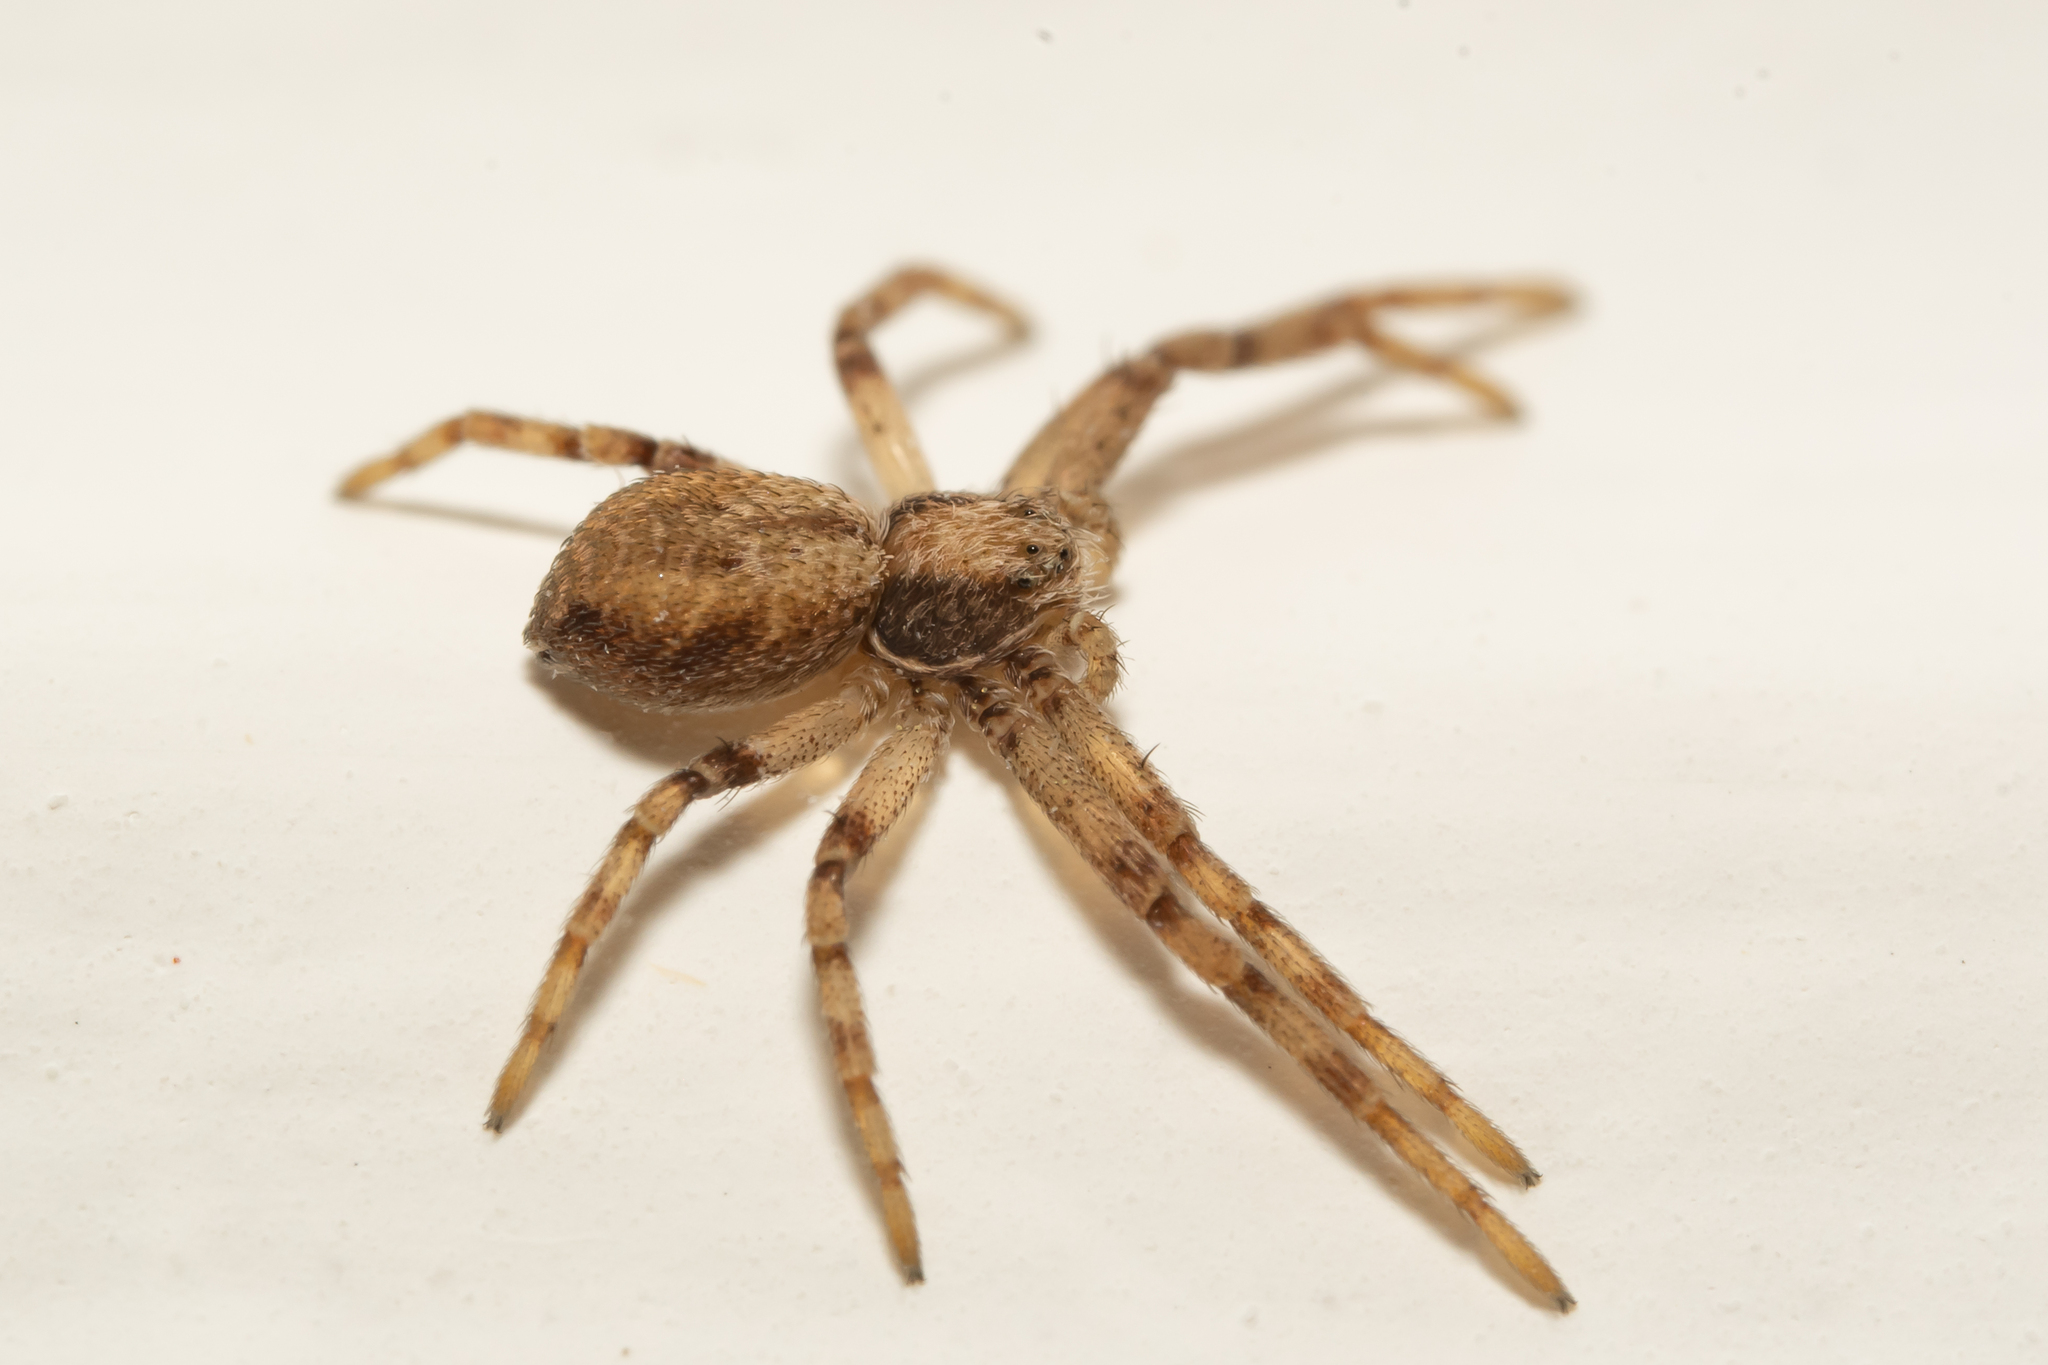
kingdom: Animalia
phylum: Arthropoda
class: Arachnida
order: Araneae
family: Philodromidae
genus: Philodromus
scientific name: Philodromus
